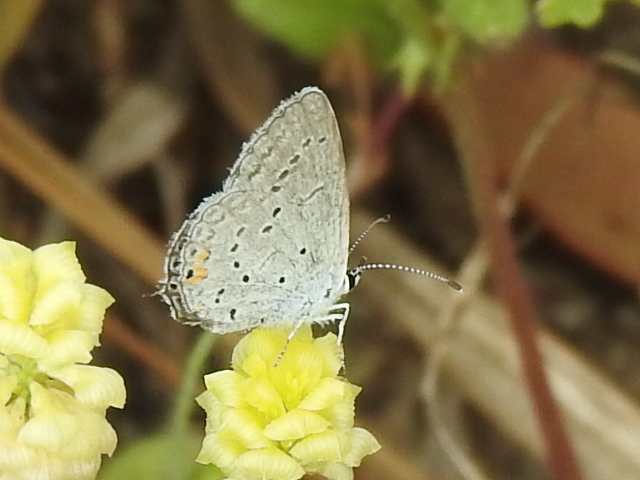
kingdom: Animalia
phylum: Arthropoda
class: Insecta
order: Lepidoptera
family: Lycaenidae
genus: Elkalyce
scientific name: Elkalyce comyntas
